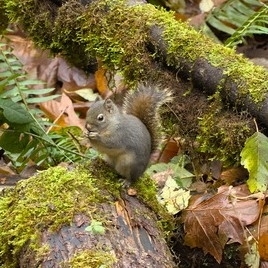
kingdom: Animalia
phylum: Chordata
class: Mammalia
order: Rodentia
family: Sciuridae
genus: Tamiasciurus
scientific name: Tamiasciurus douglasii
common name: Douglas's squirrel
